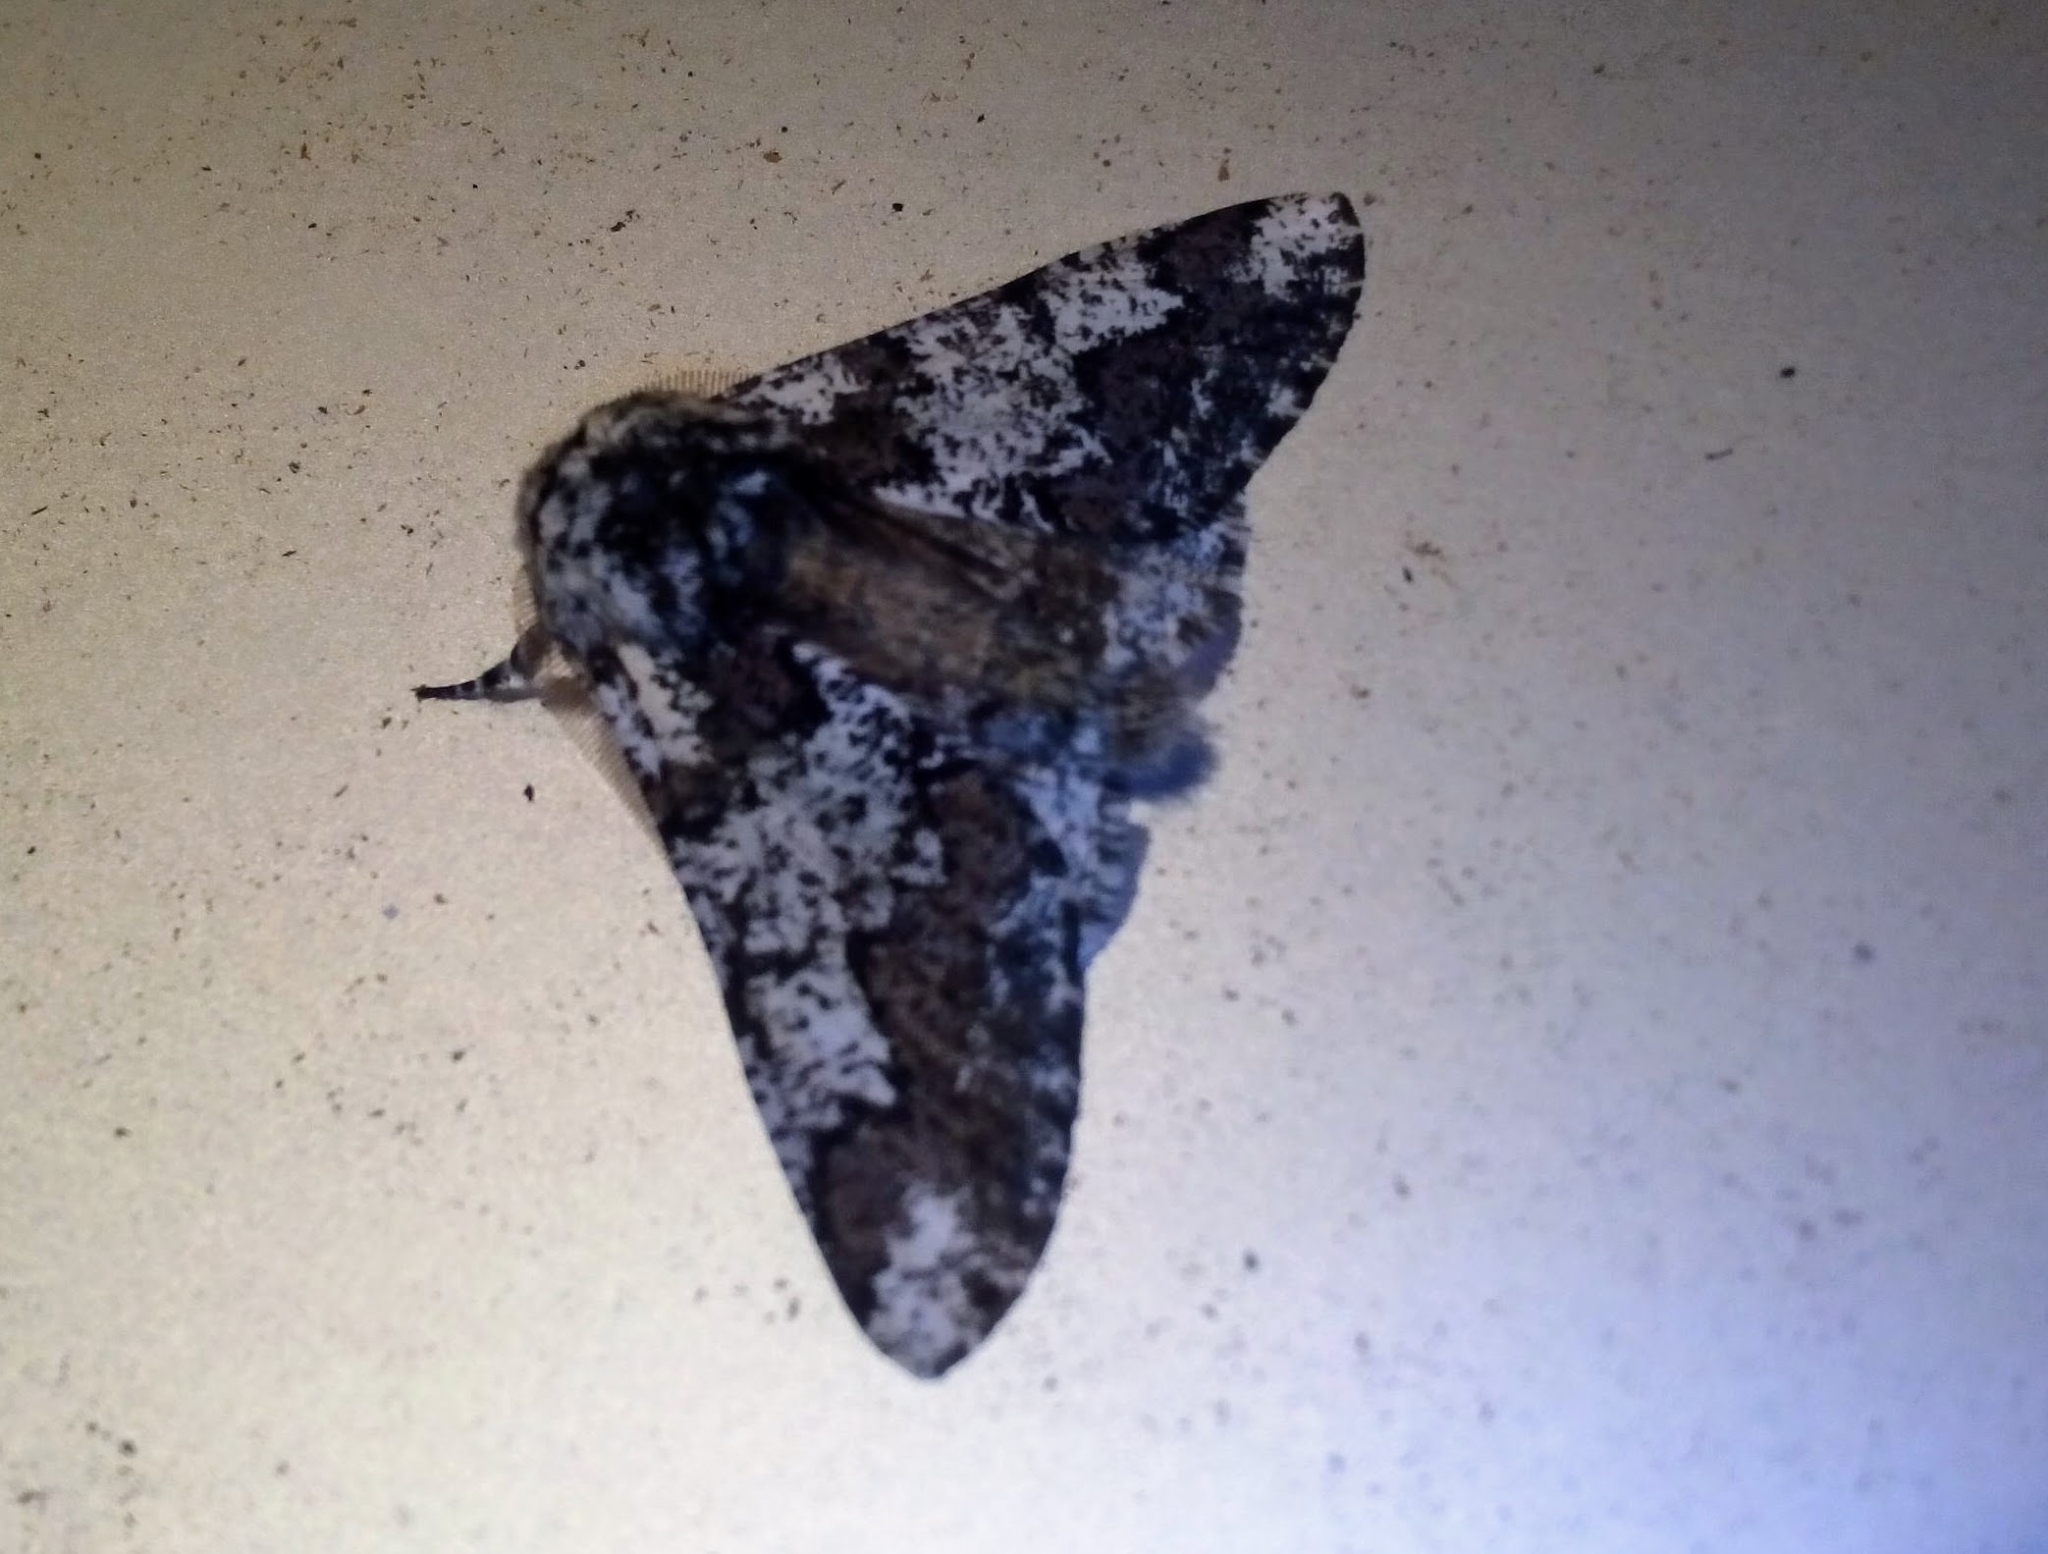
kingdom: Animalia
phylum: Arthropoda
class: Insecta
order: Lepidoptera
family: Geometridae
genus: Biston
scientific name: Biston strataria
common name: Oak beauty
